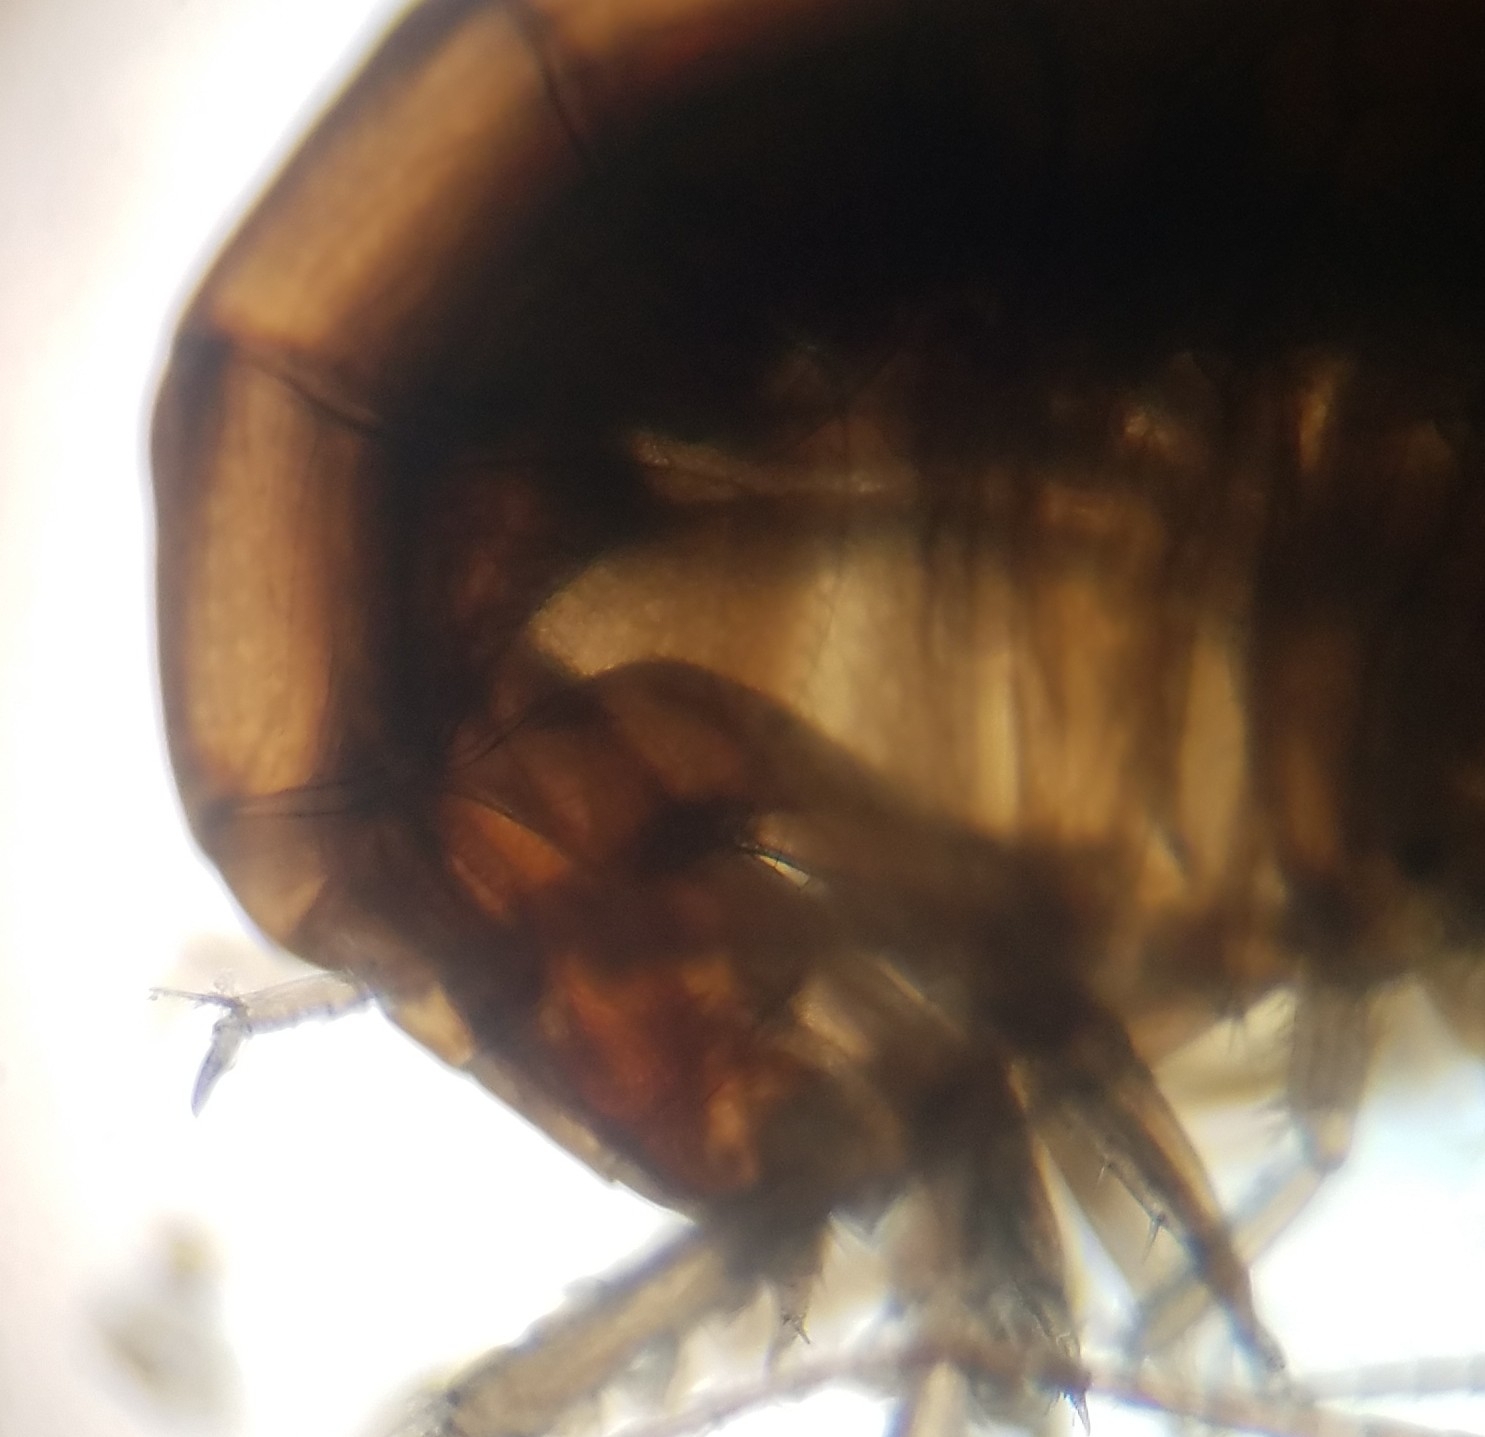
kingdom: Animalia
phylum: Arthropoda
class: Malacostraca
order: Amphipoda
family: Crangonyctidae
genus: Sicifera
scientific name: Sicifera chamberlaini
